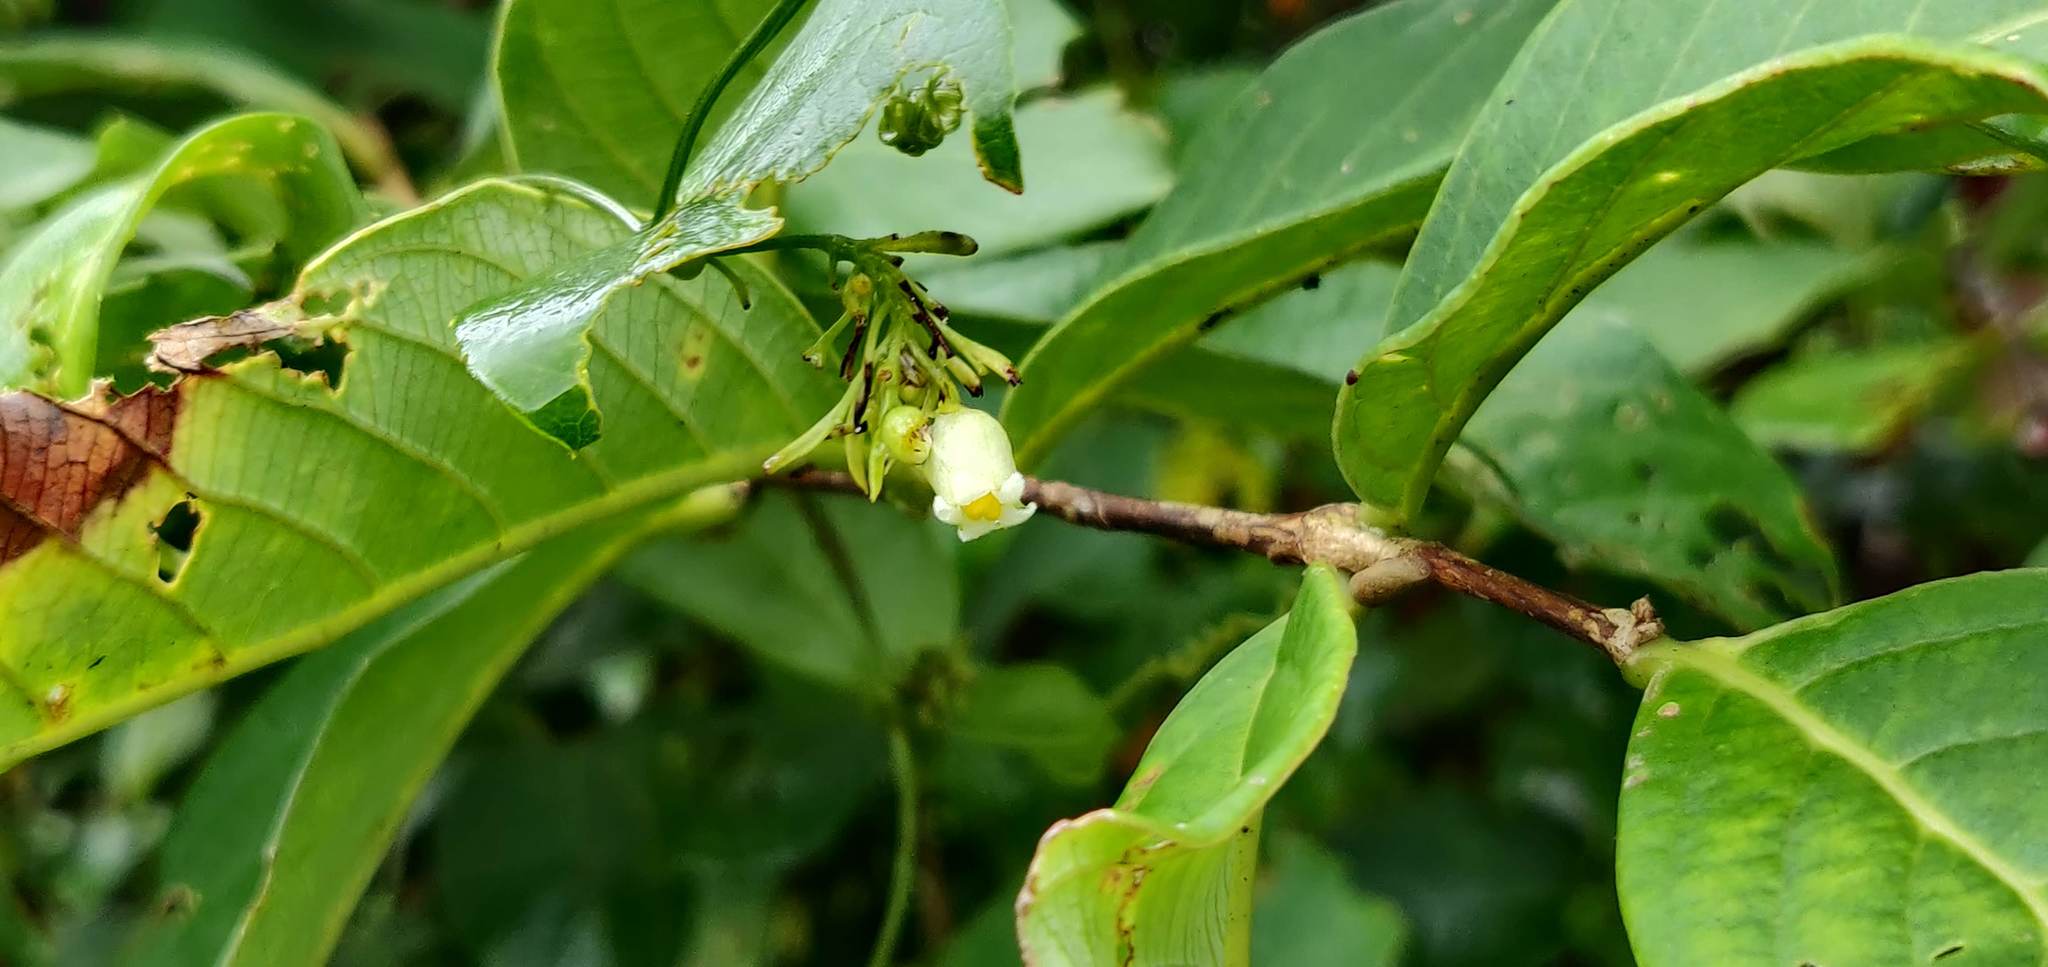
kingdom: Plantae
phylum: Tracheophyta
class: Magnoliopsida
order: Cucurbitales
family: Cucurbitaceae
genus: Solena
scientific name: Solena amplexicaulis
